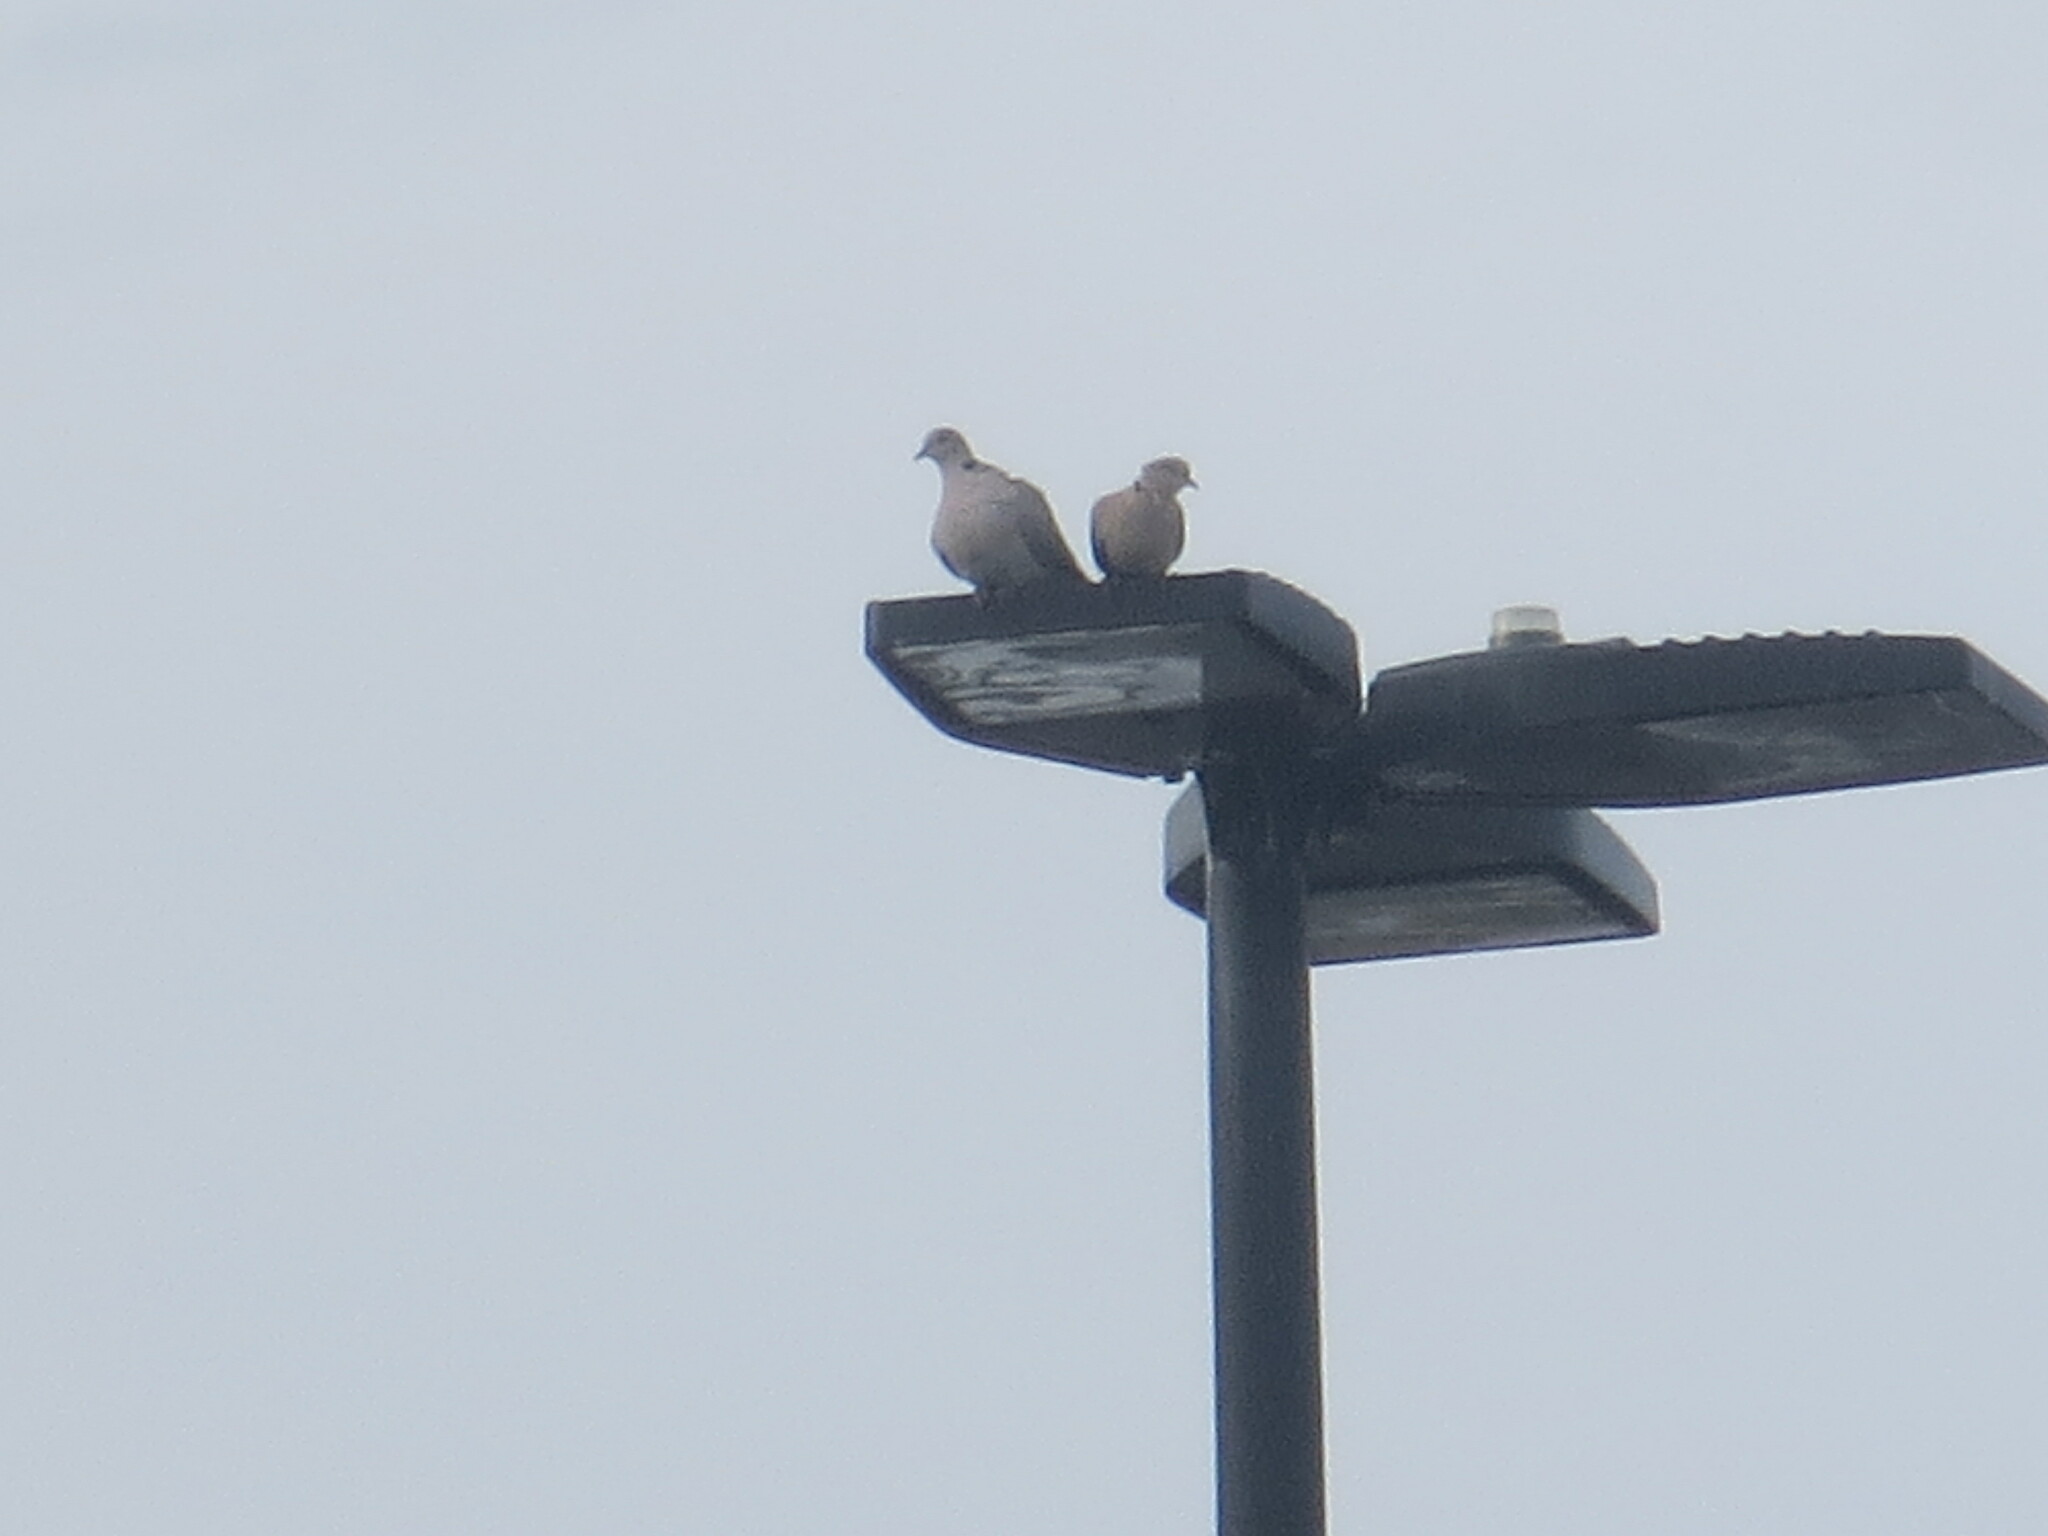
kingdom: Animalia
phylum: Chordata
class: Aves
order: Columbiformes
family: Columbidae
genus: Streptopelia
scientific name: Streptopelia decaocto
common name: Eurasian collared dove
